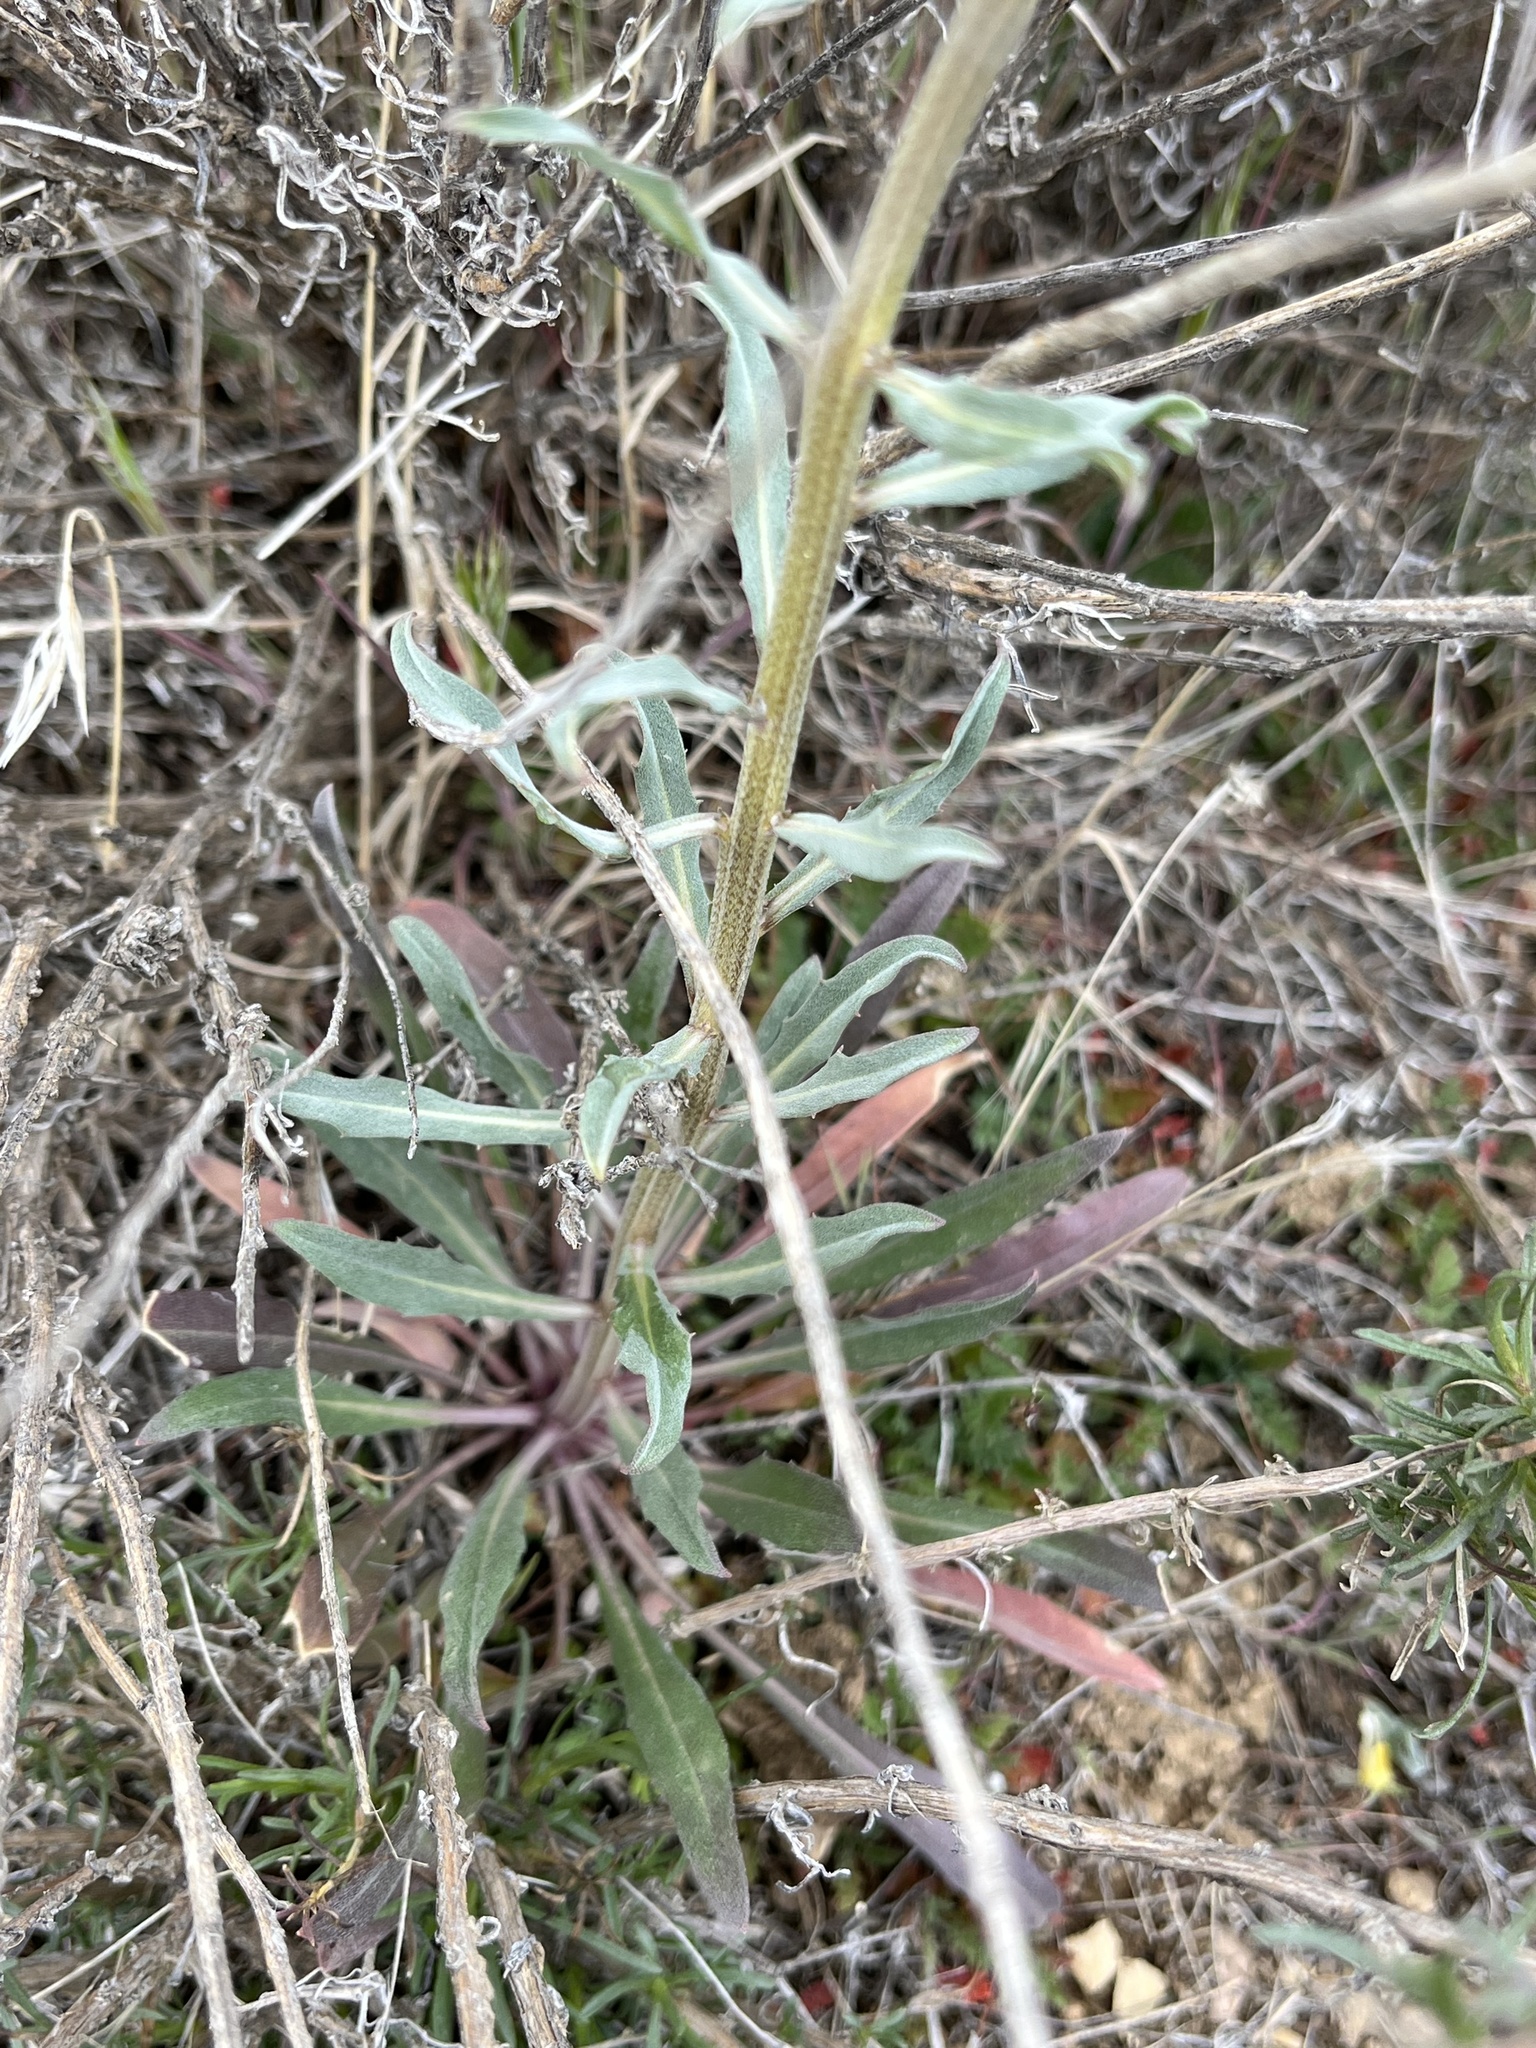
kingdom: Plantae
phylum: Tracheophyta
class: Magnoliopsida
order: Brassicales
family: Brassicaceae
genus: Erysimum
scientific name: Erysimum capitatum
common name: Western wallflower
